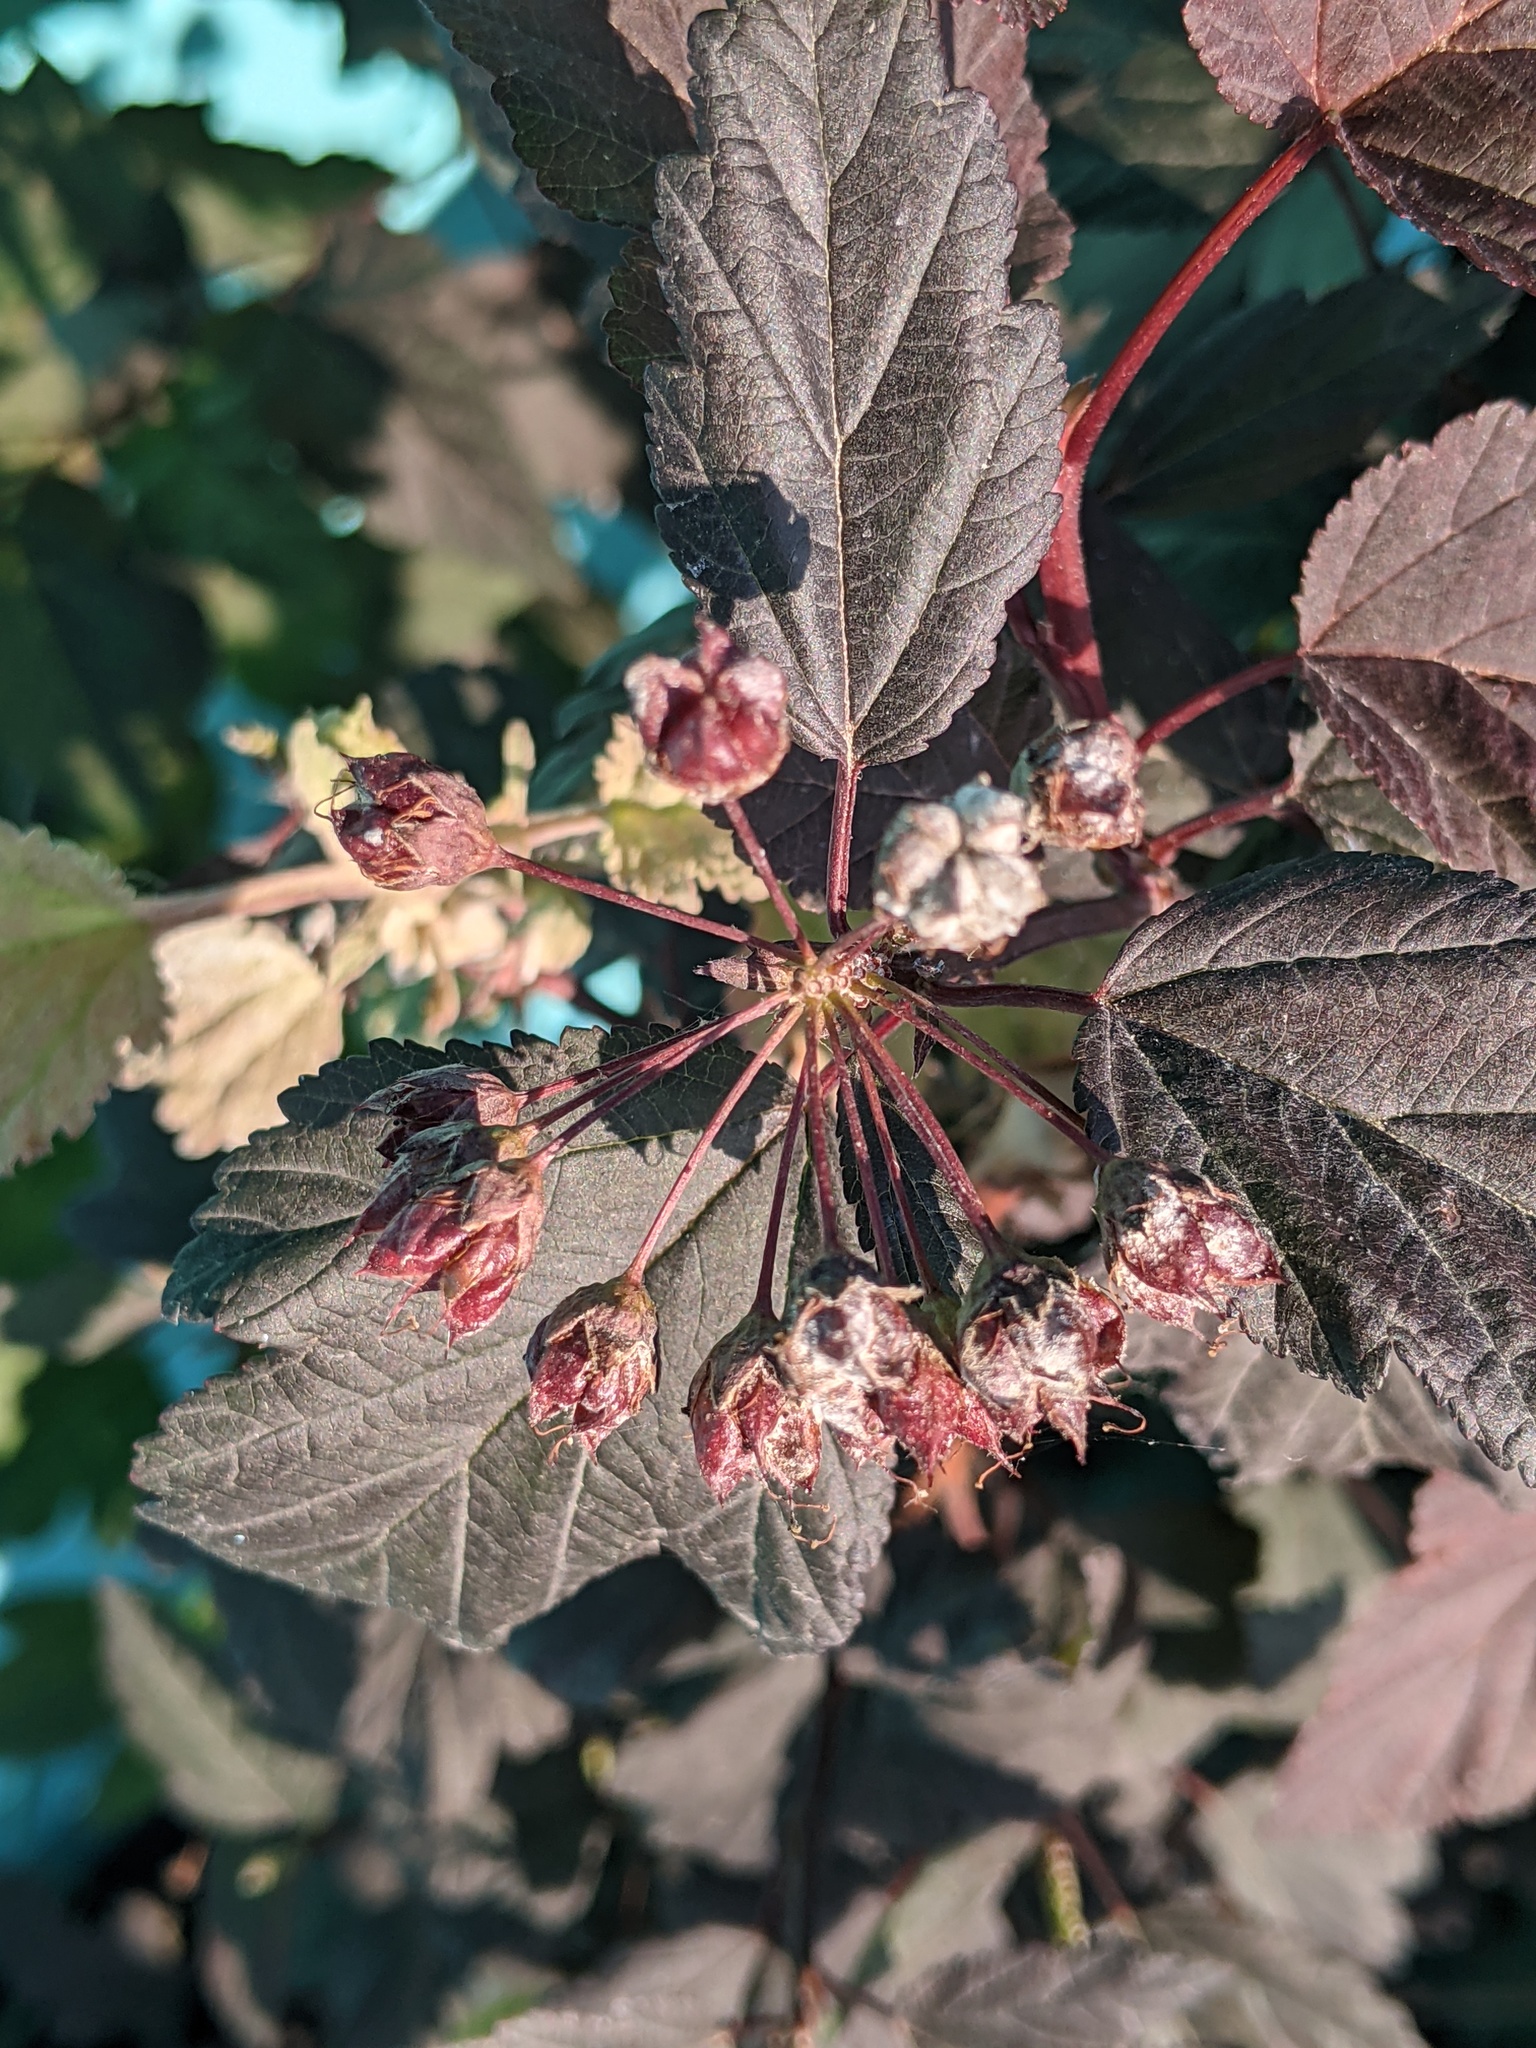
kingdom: Fungi
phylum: Ascomycota
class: Leotiomycetes
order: Helotiales
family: Erysiphaceae
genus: Podosphaera
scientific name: Podosphaera physocarpi
